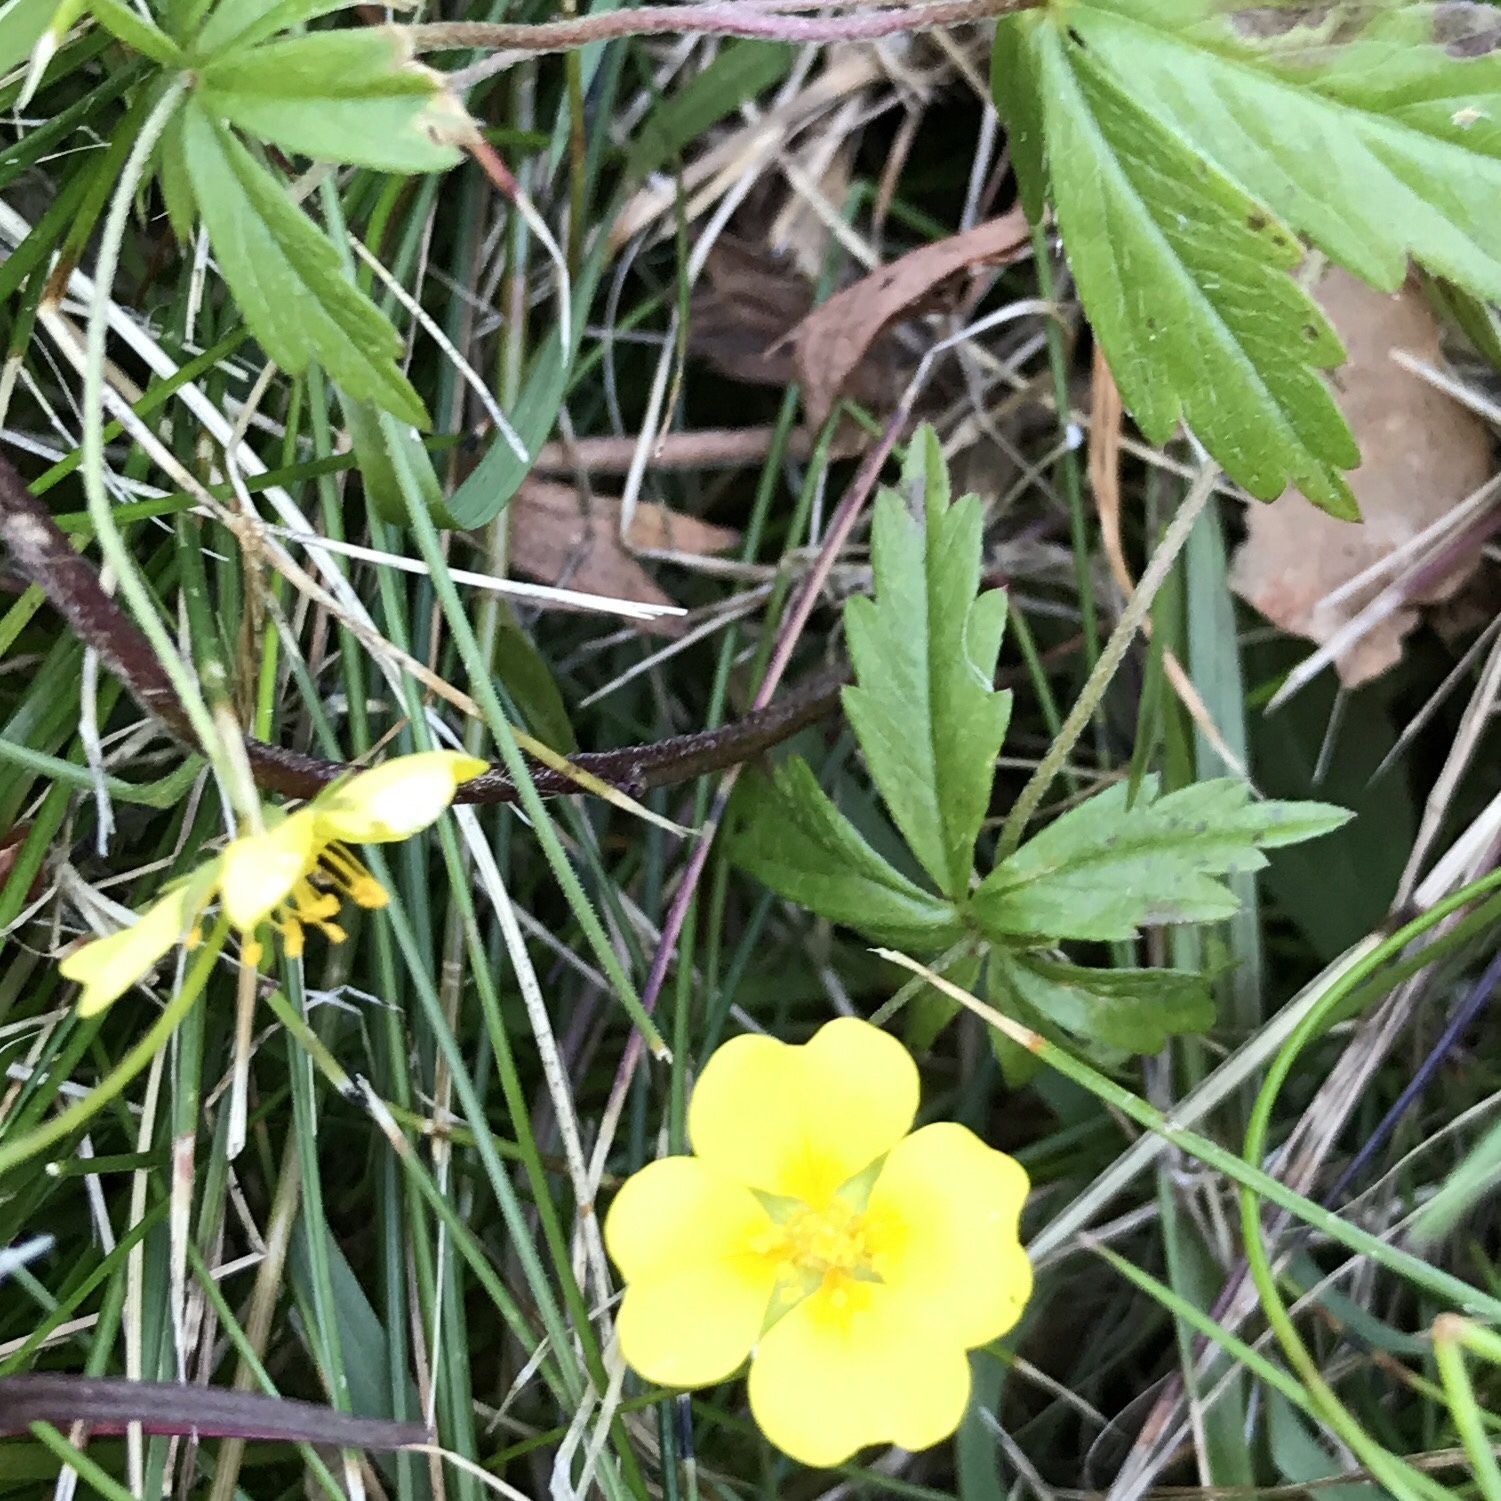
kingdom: Plantae
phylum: Tracheophyta
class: Magnoliopsida
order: Rosales
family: Rosaceae
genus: Potentilla
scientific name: Potentilla erecta
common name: Tormentil
